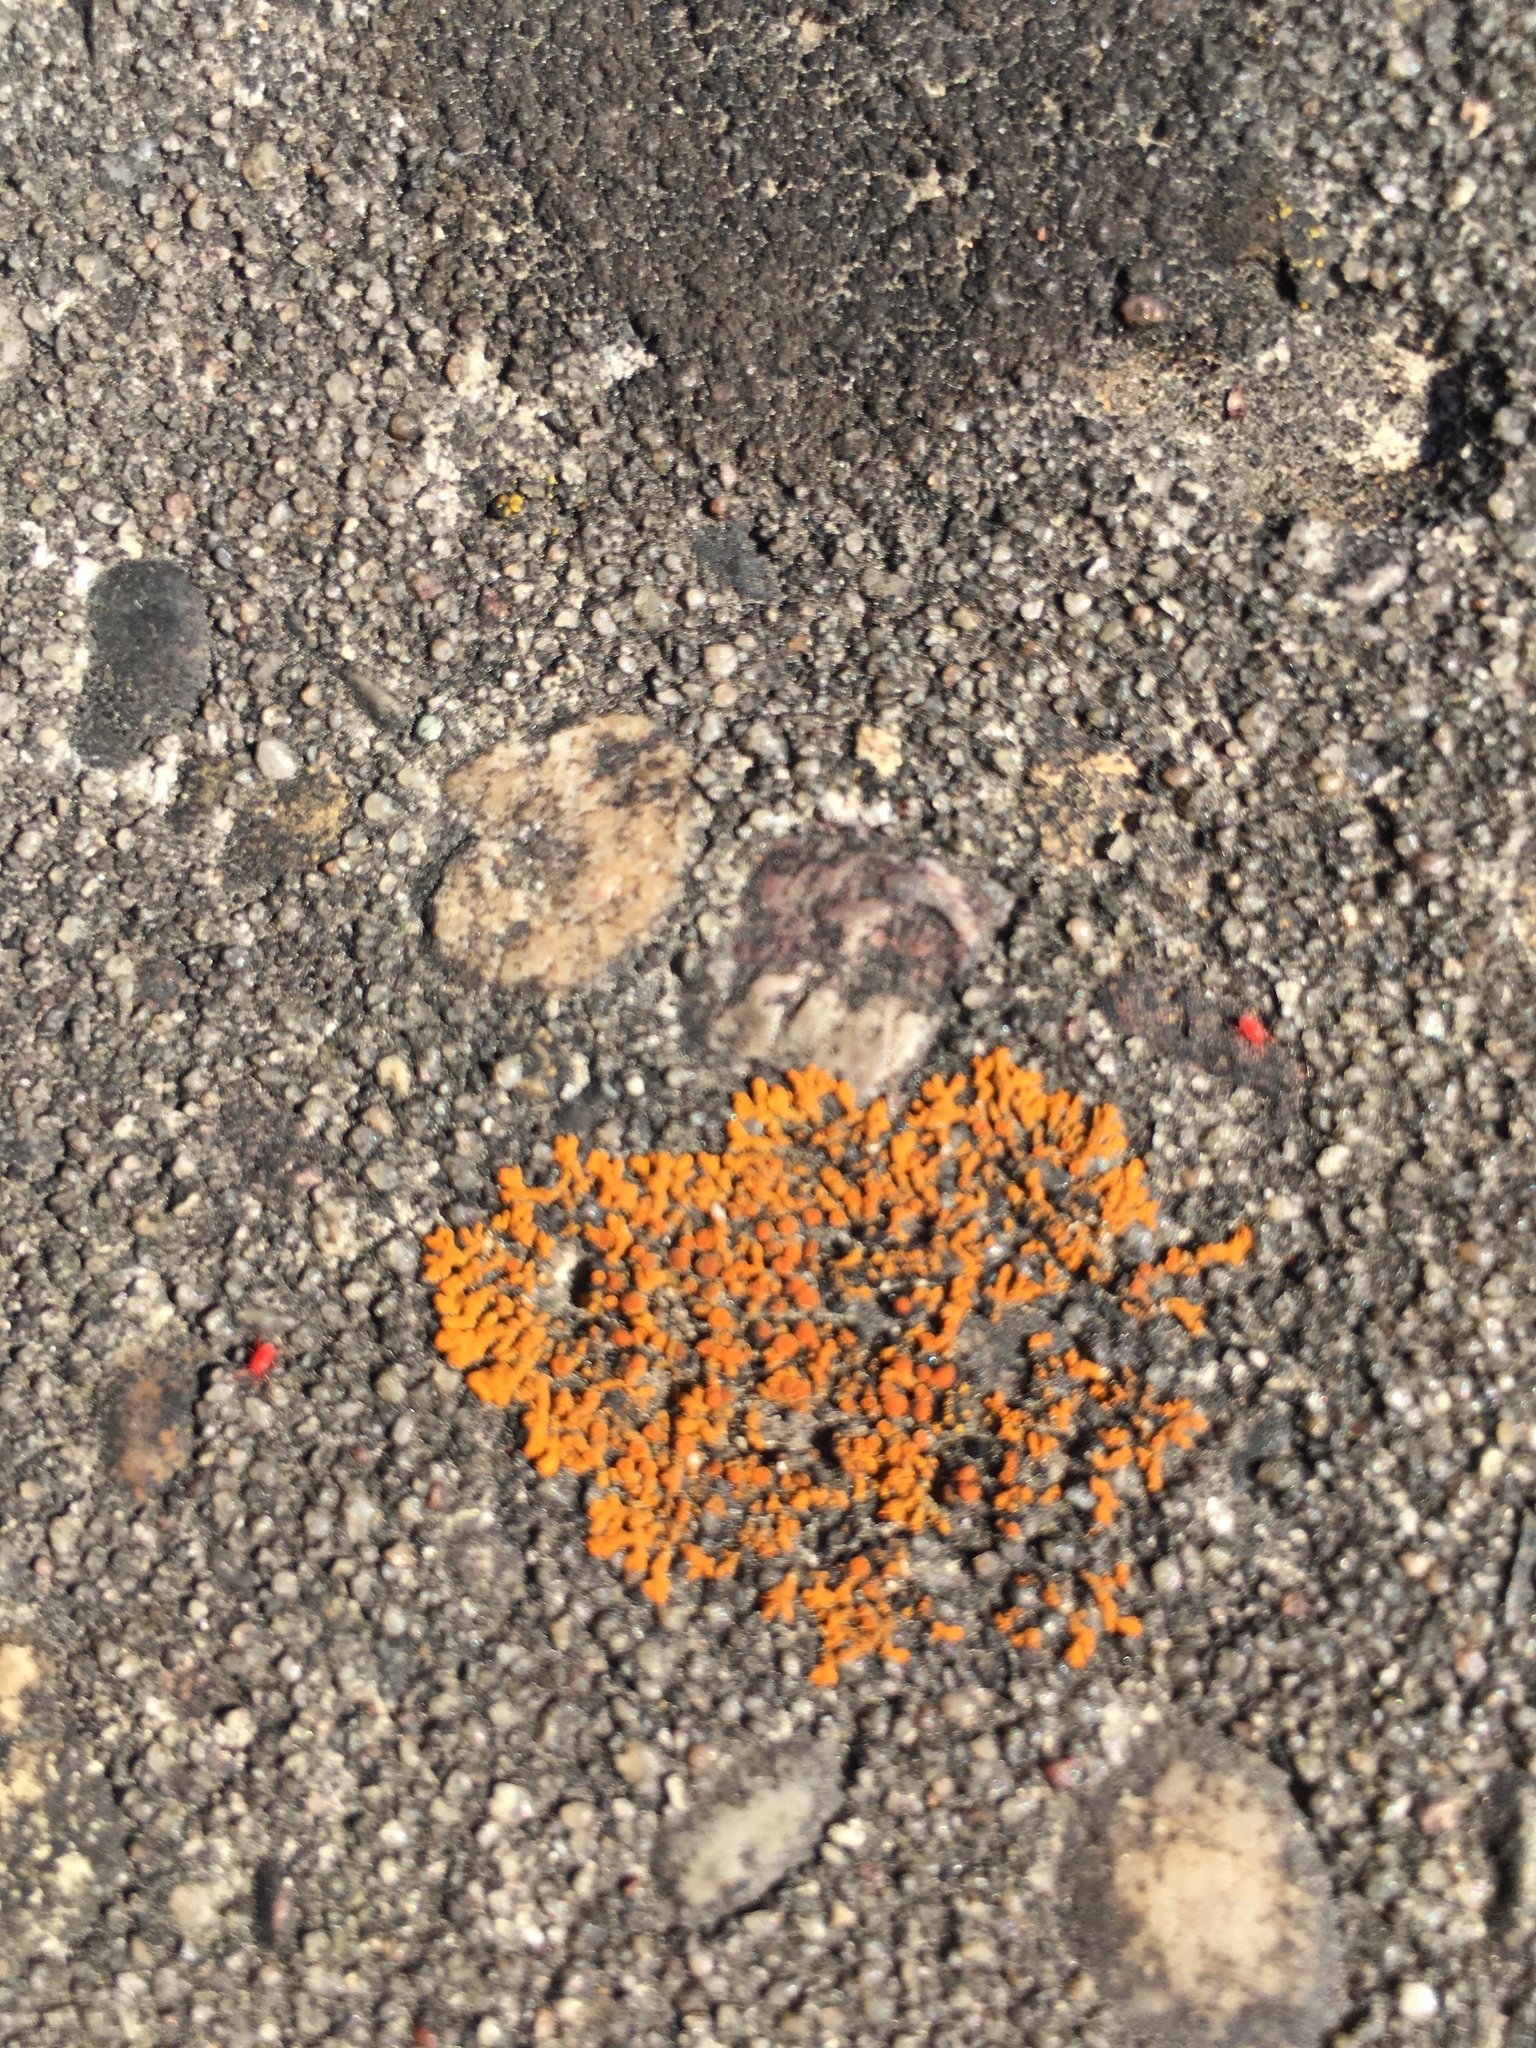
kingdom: Fungi
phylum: Ascomycota
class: Lecanoromycetes
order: Teloschistales
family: Teloschistaceae
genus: Xanthoria
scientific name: Xanthoria elegans
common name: Elegant sunburst lichen
